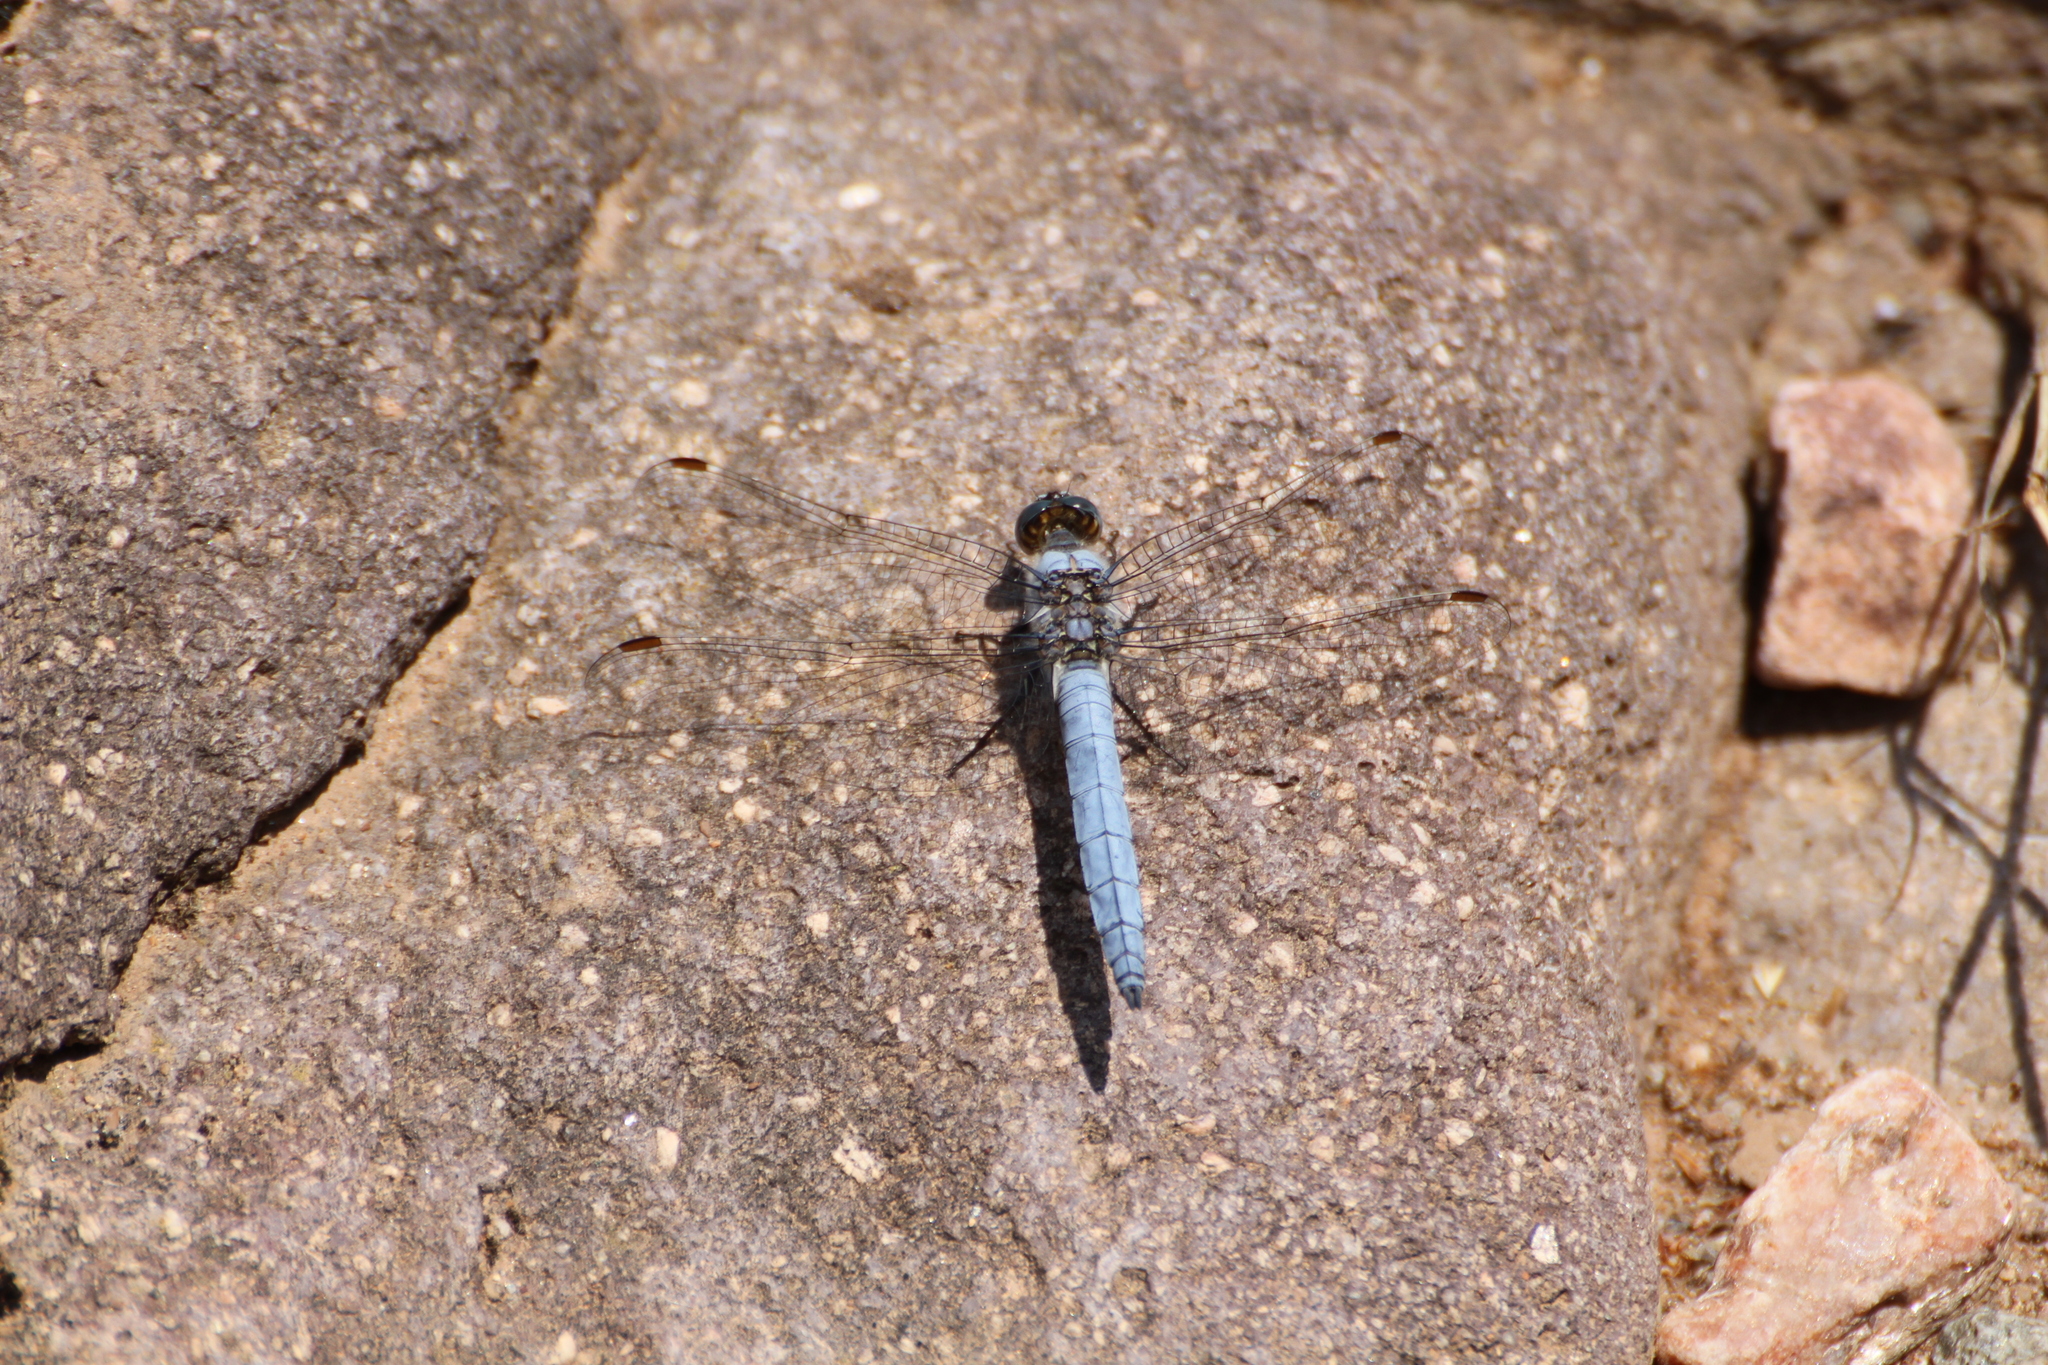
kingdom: Animalia
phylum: Arthropoda
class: Insecta
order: Odonata
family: Libellulidae
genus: Orthetrum
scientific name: Orthetrum brunneum
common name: Southern skimmer
